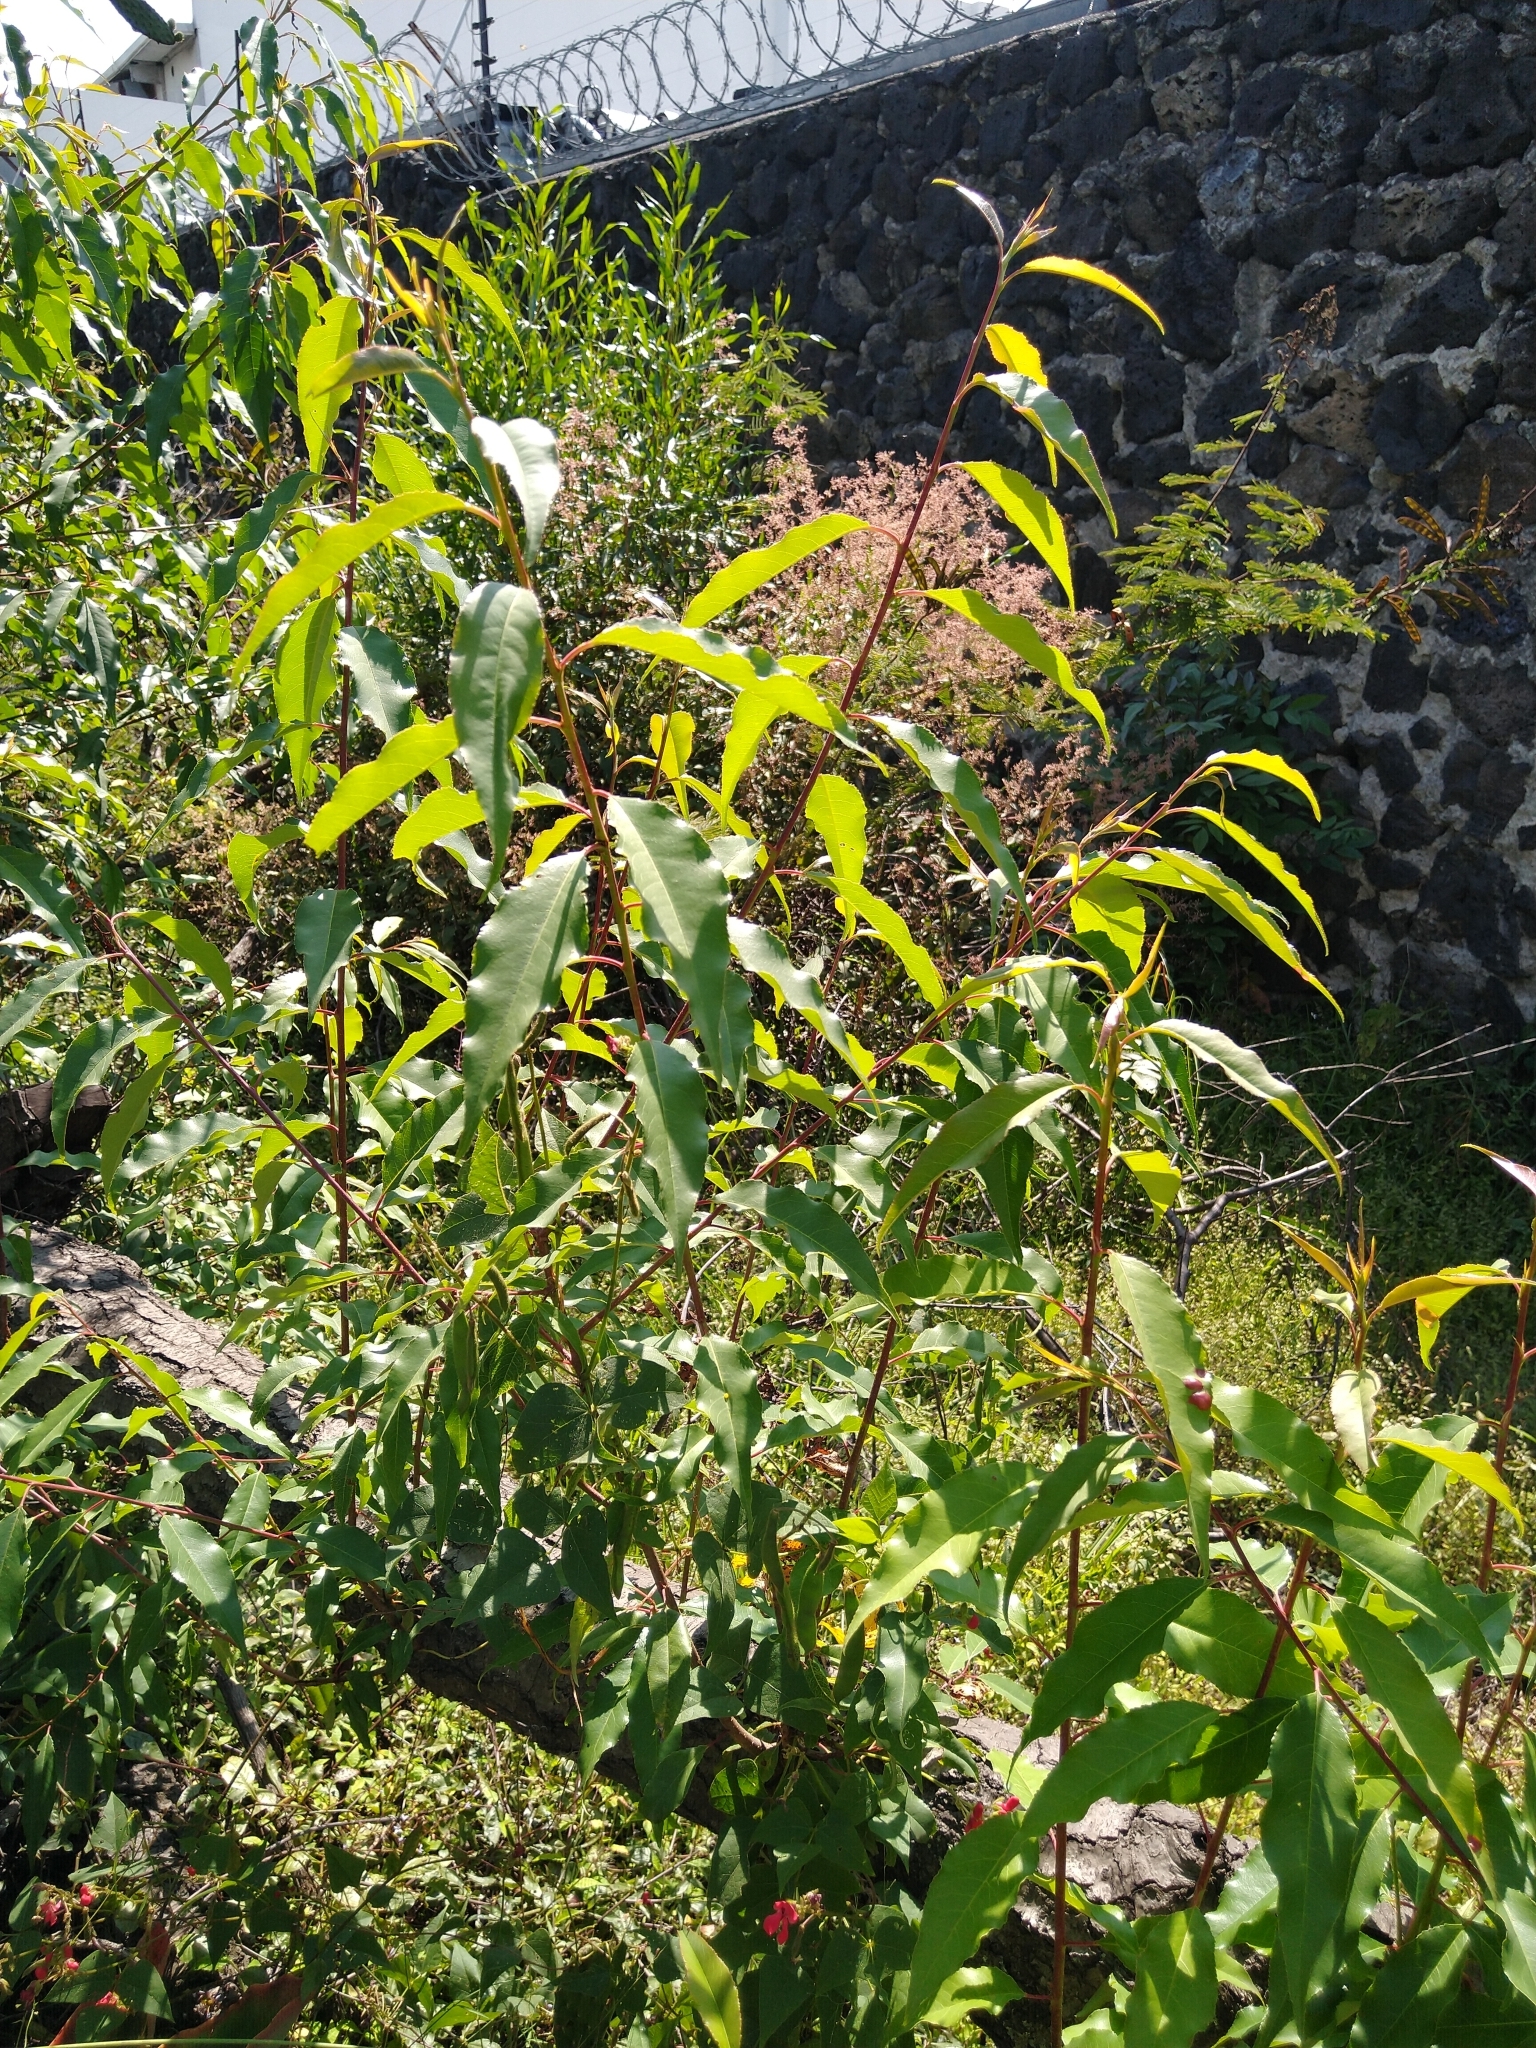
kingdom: Plantae
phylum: Tracheophyta
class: Magnoliopsida
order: Rosales
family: Rosaceae
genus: Prunus
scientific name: Prunus serotina
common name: Black cherry
